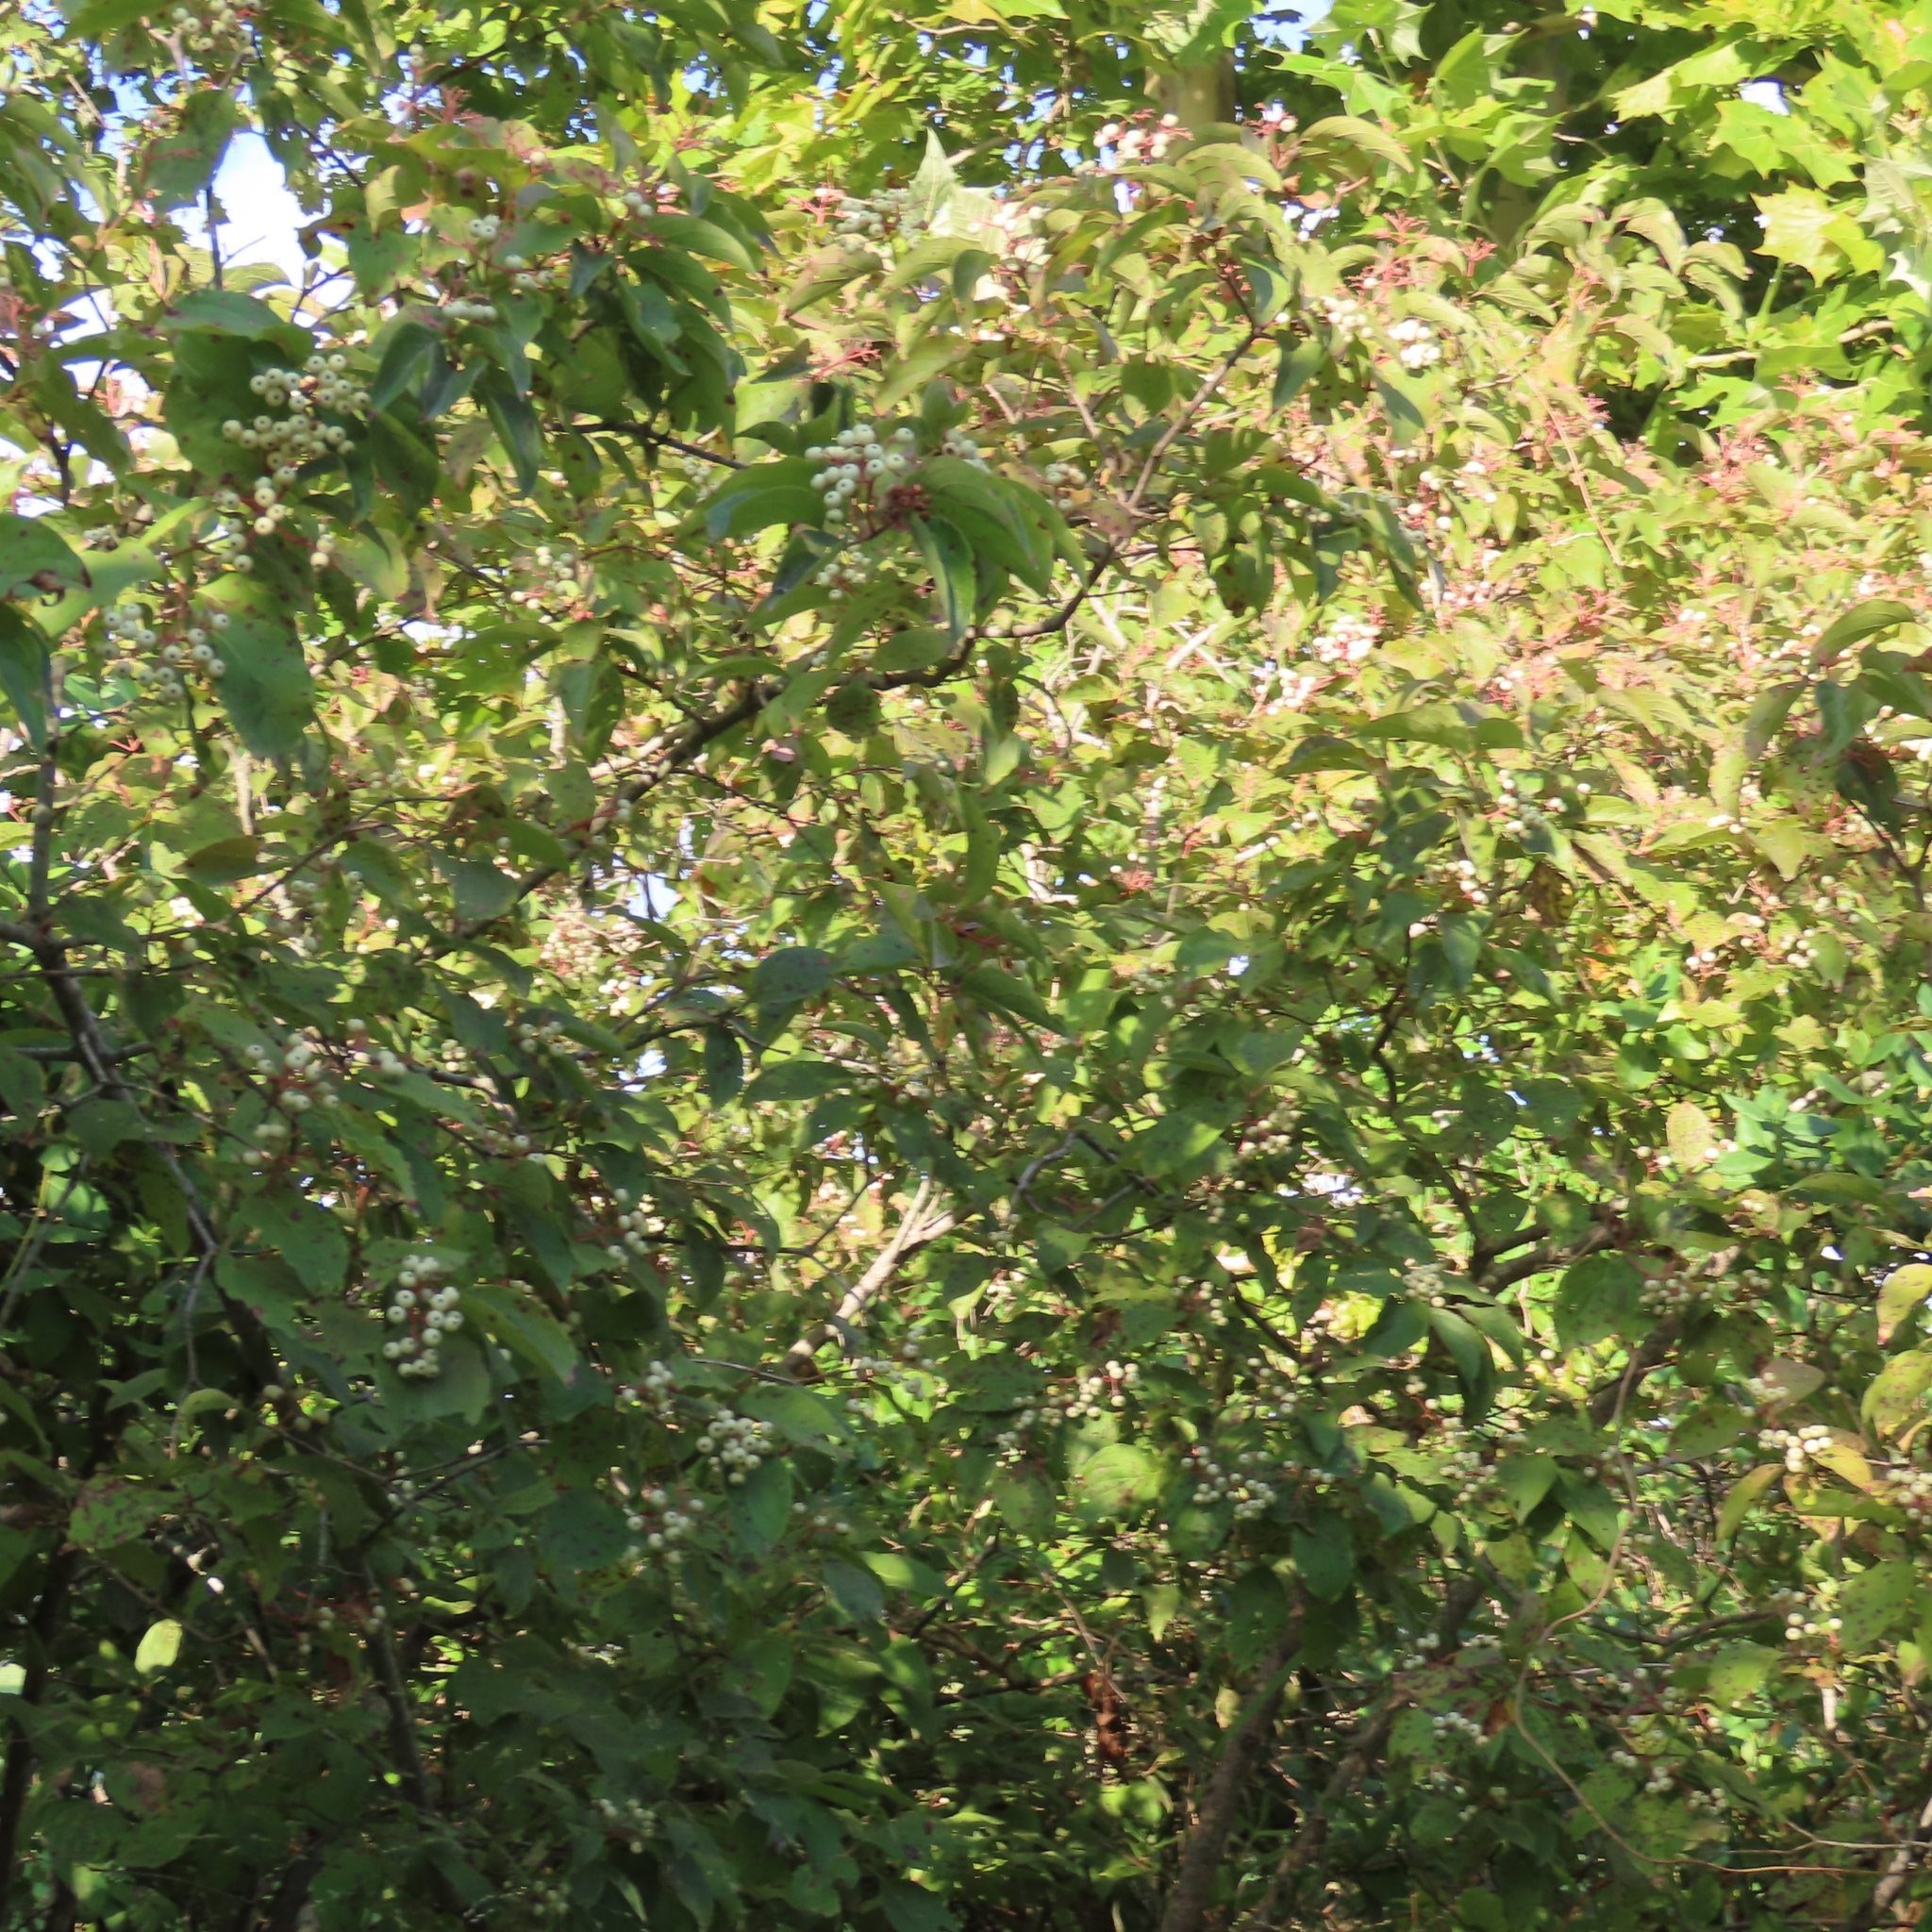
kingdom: Plantae
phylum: Tracheophyta
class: Magnoliopsida
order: Cornales
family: Cornaceae
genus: Cornus
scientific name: Cornus drummondii
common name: Rough-leaf dogwood
